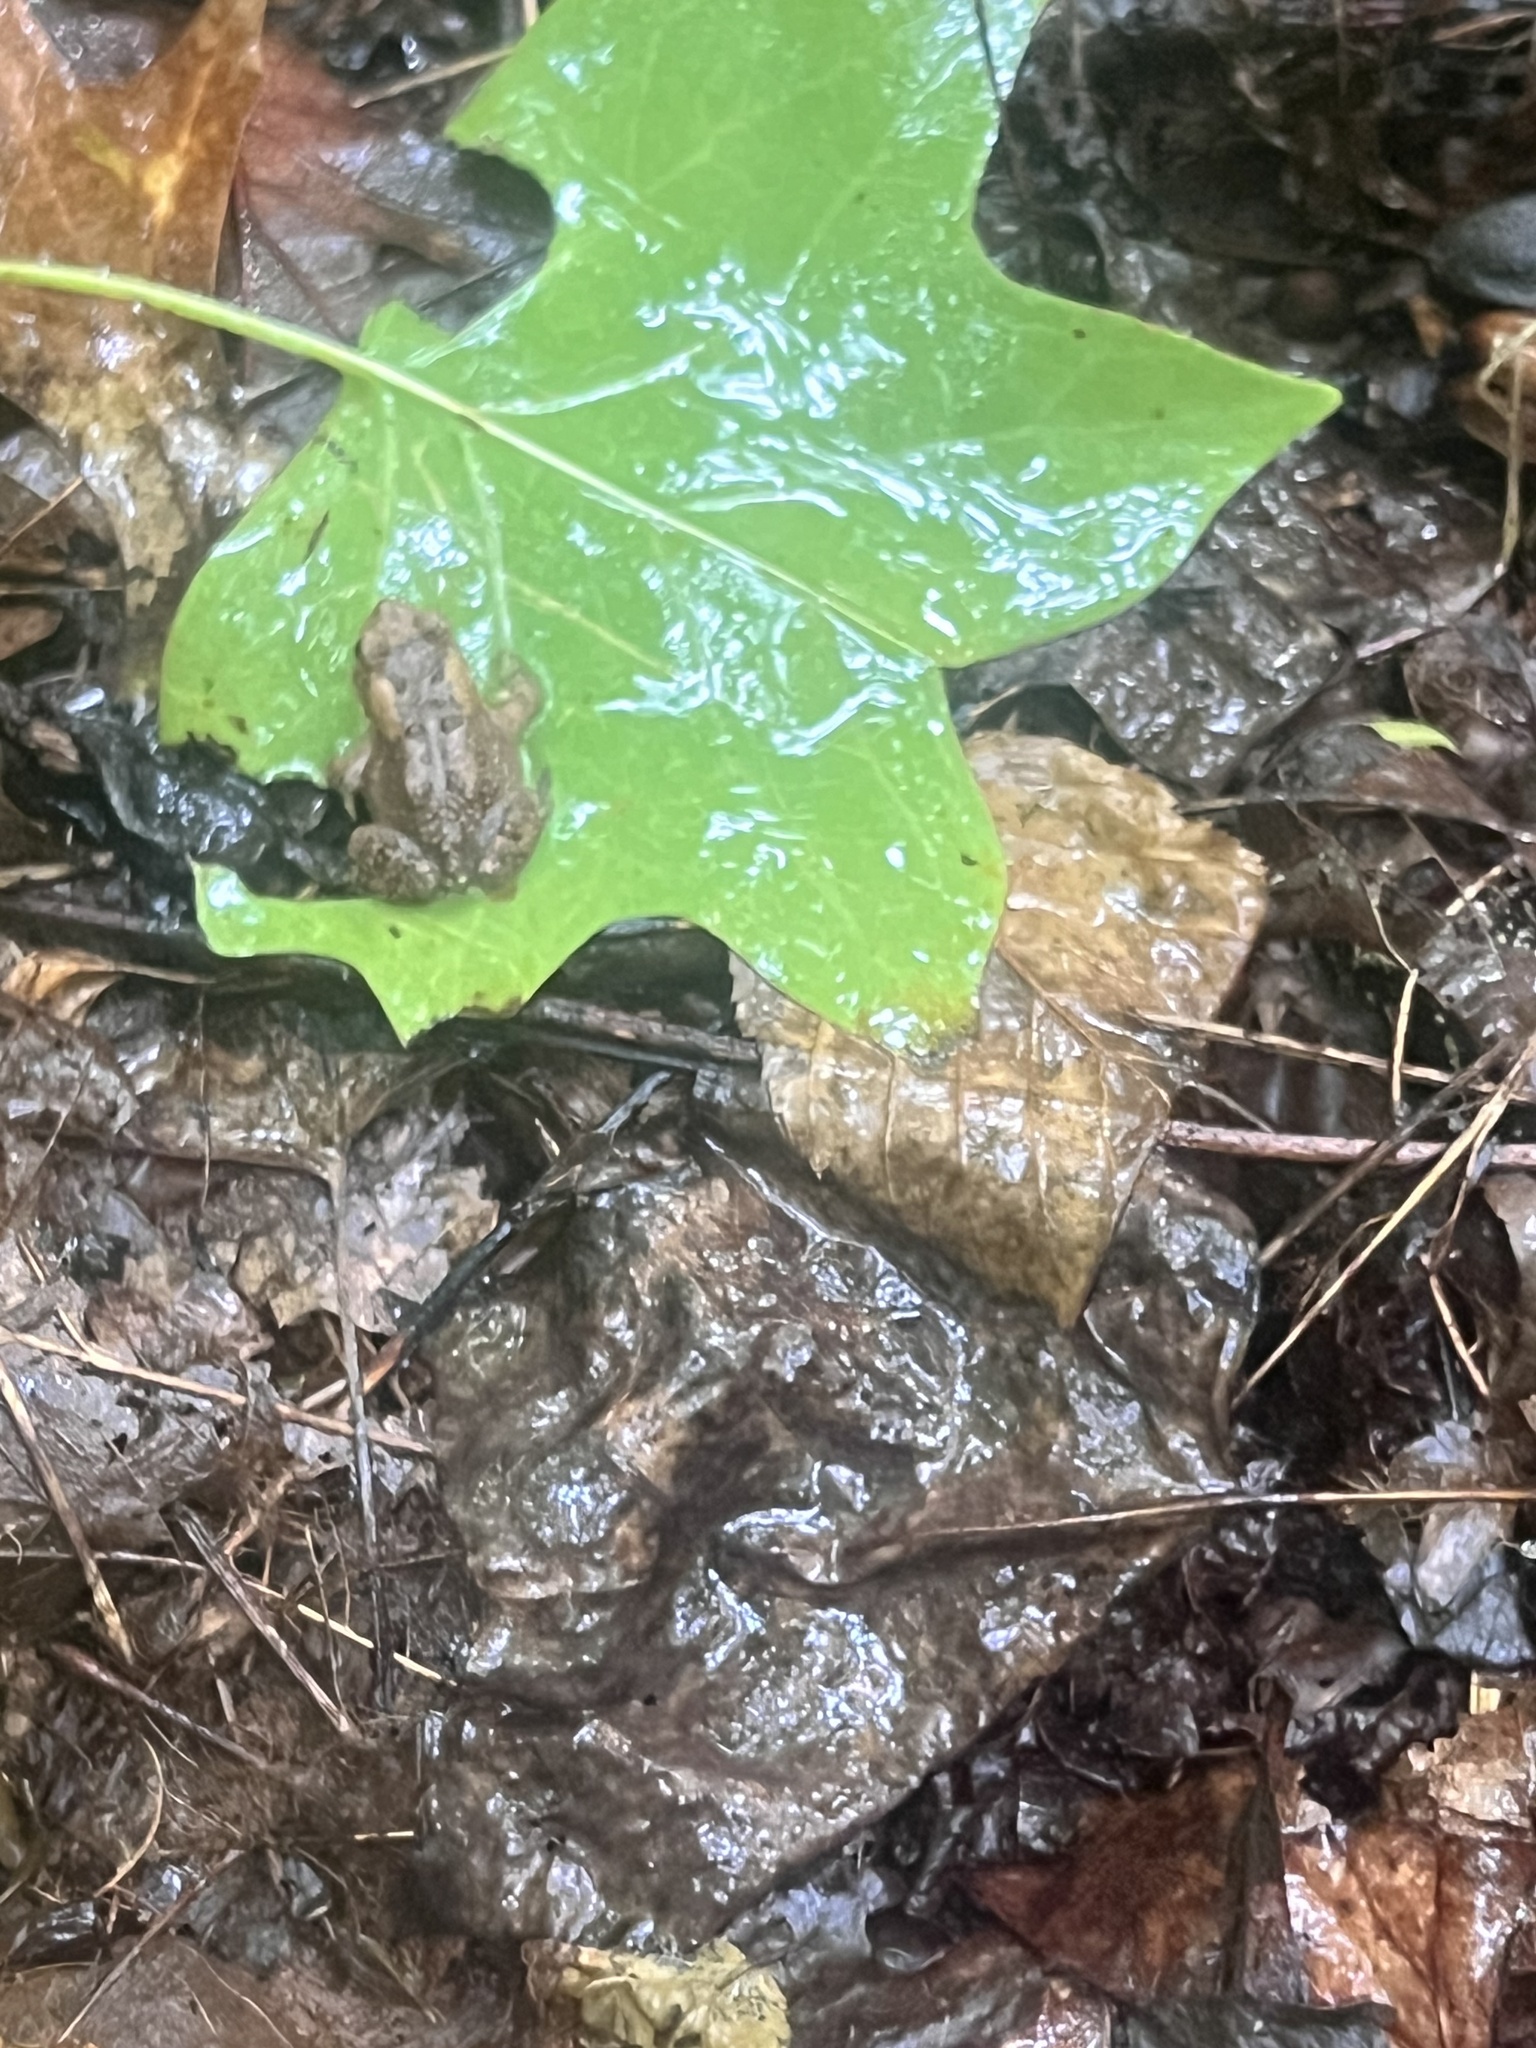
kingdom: Animalia
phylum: Chordata
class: Amphibia
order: Anura
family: Bufonidae
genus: Anaxyrus
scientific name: Anaxyrus americanus
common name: American toad
